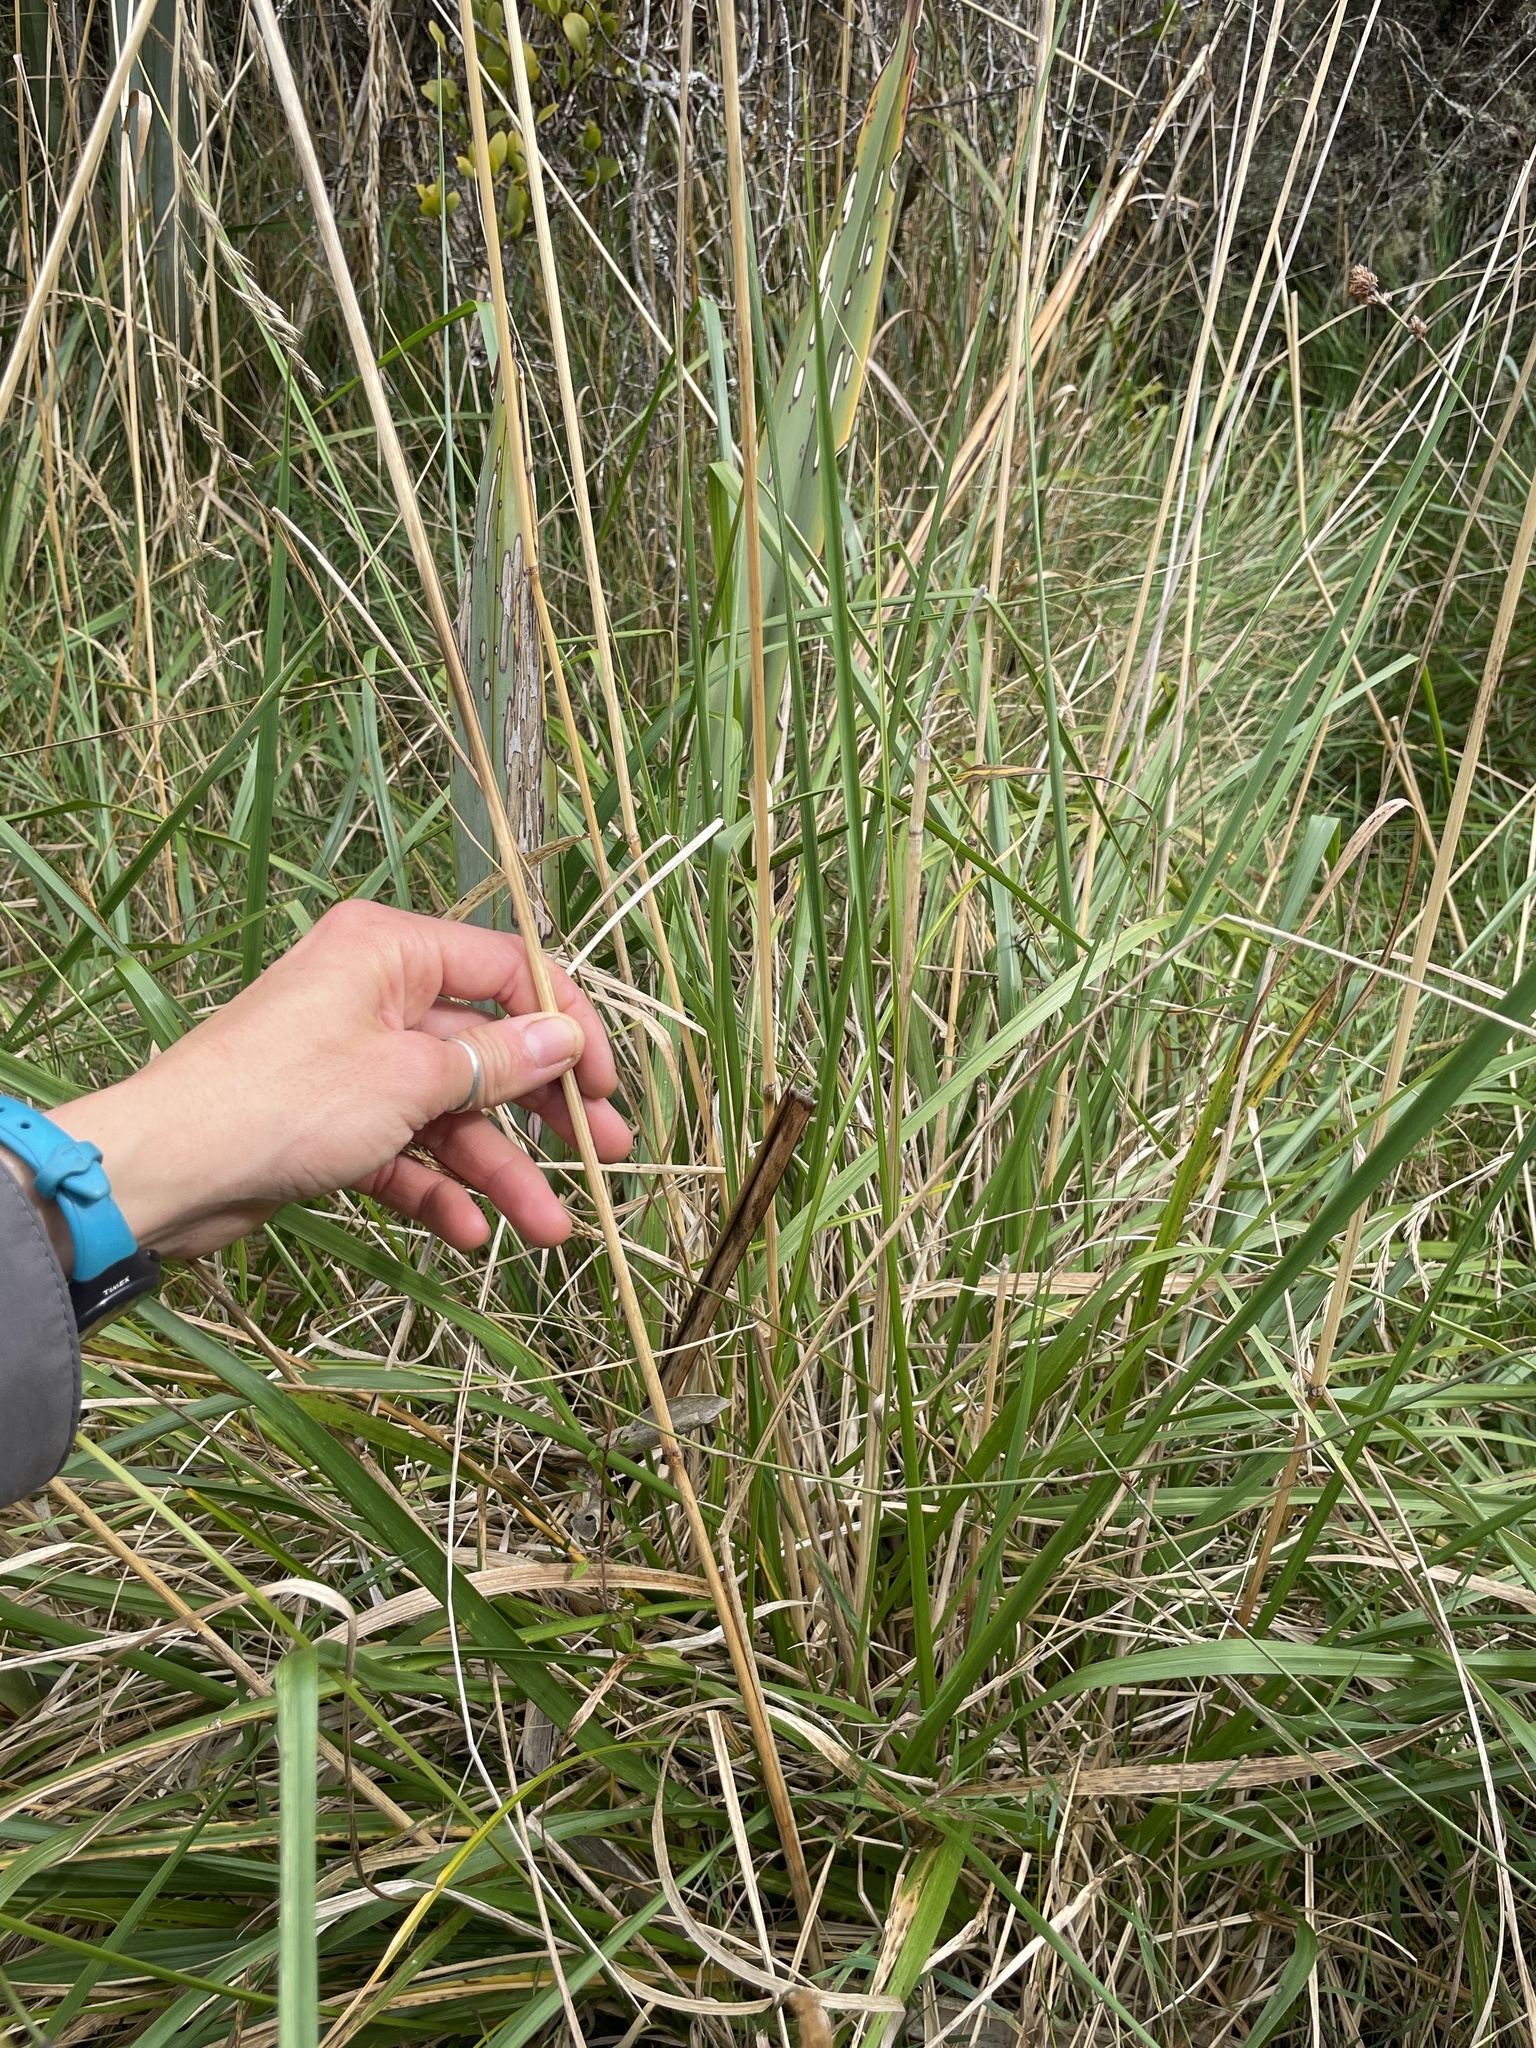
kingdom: Plantae
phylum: Tracheophyta
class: Liliopsida
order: Poales
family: Poaceae
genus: Lolium
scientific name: Lolium arundinaceum
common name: Reed fescue
